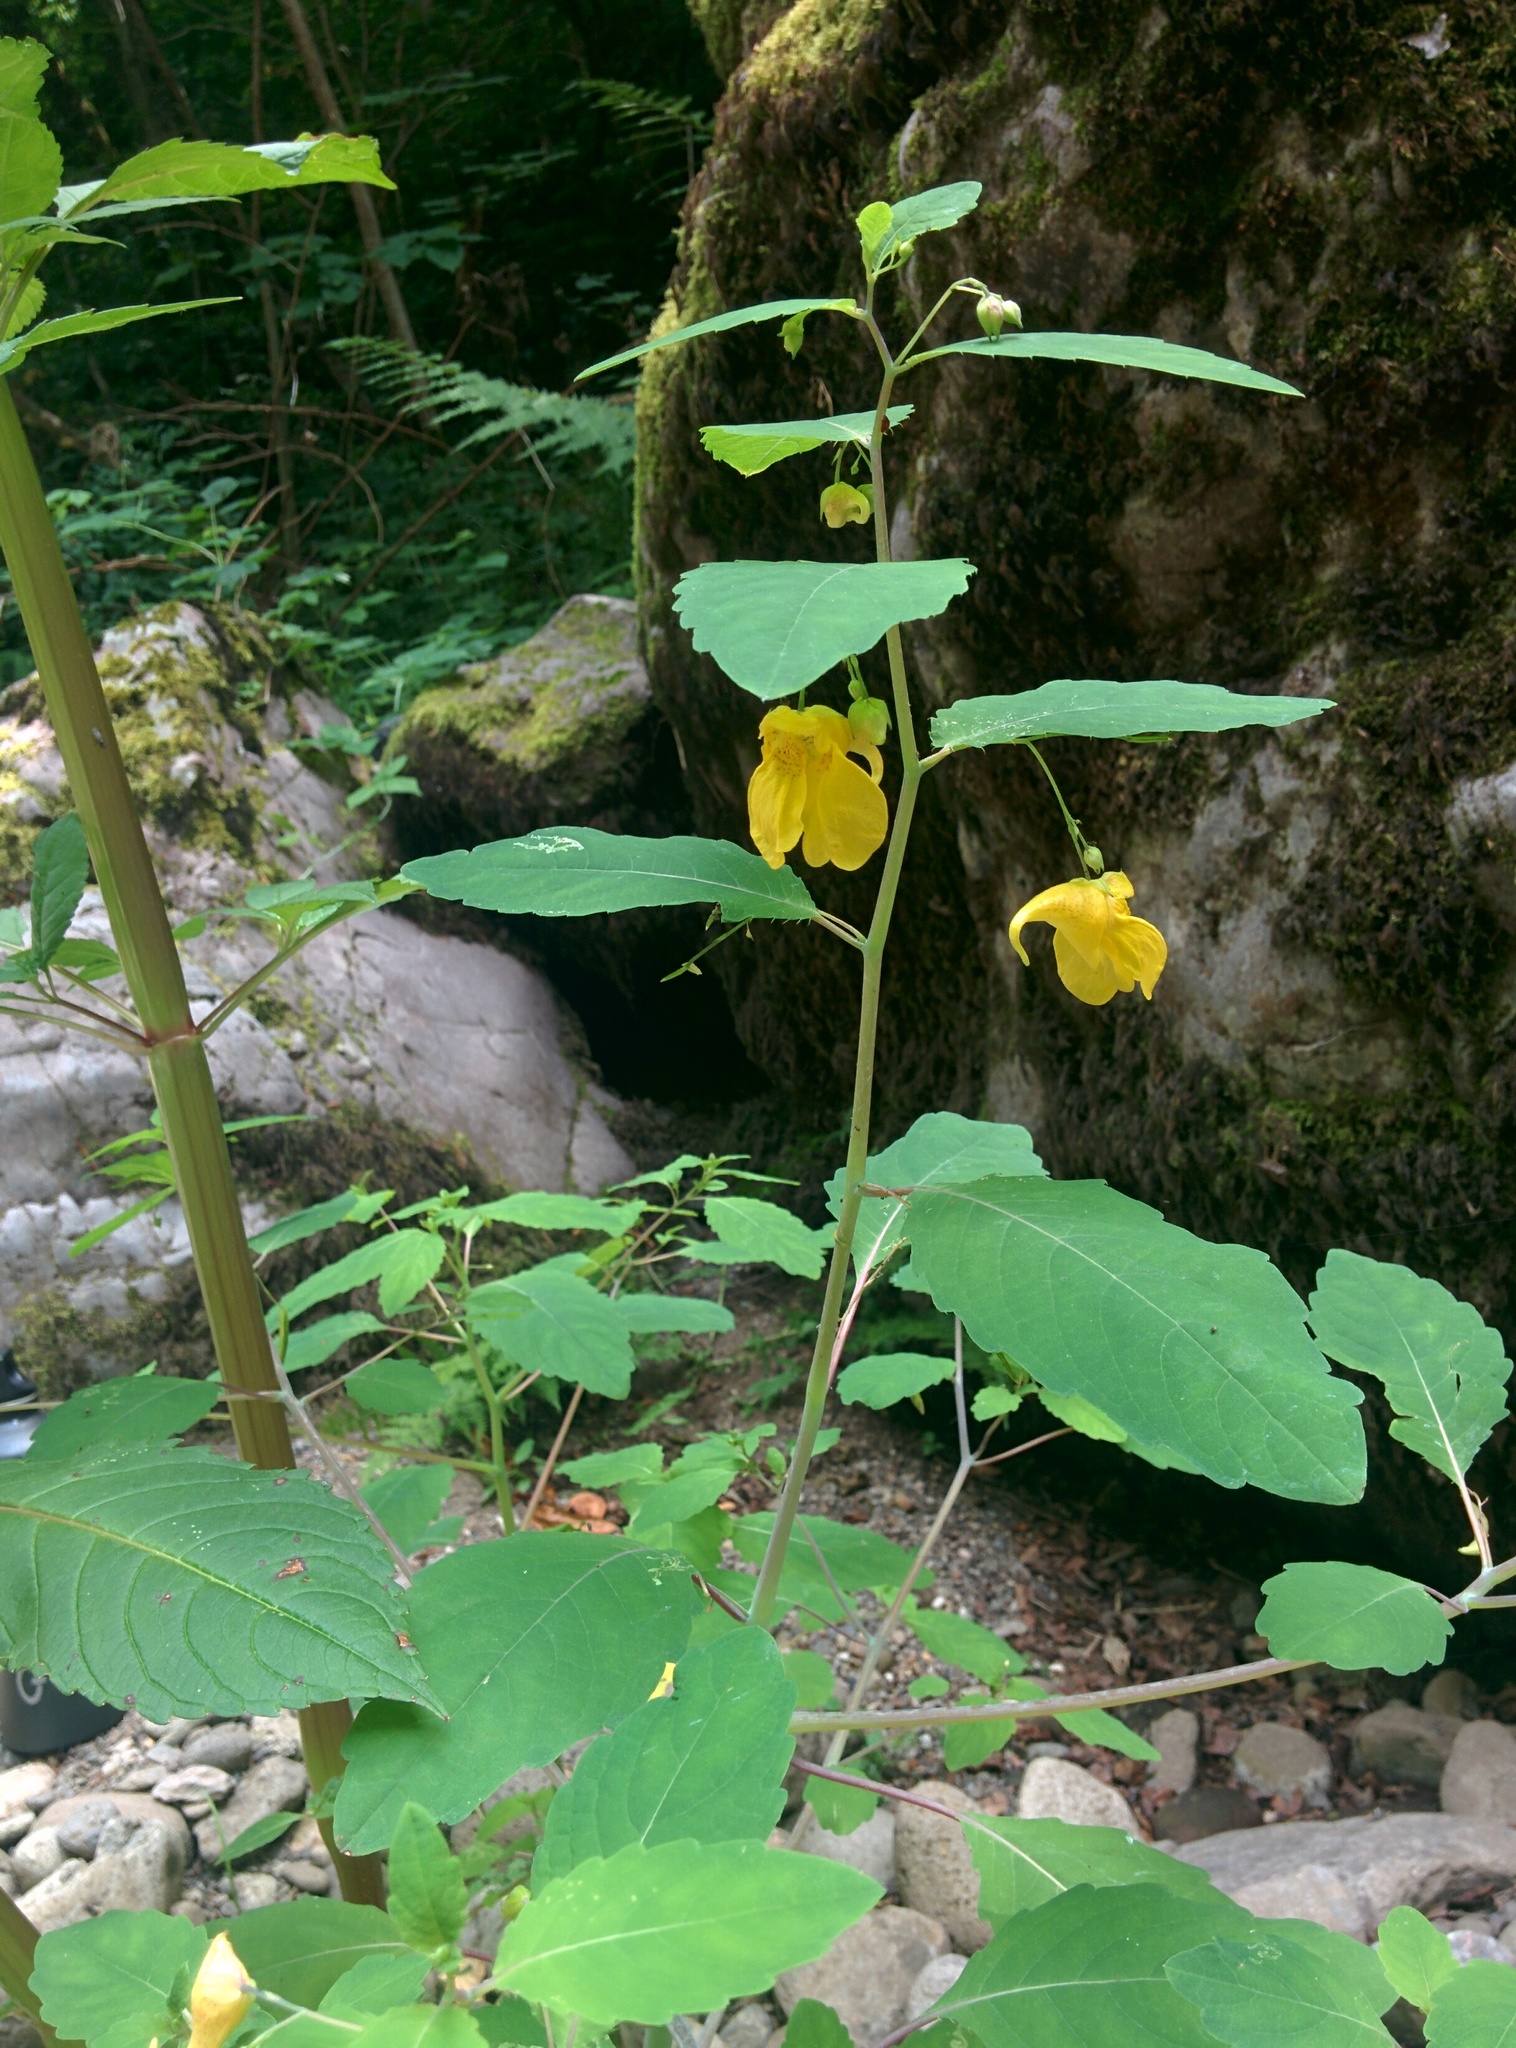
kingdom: Plantae
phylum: Tracheophyta
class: Magnoliopsida
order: Ericales
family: Balsaminaceae
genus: Impatiens
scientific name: Impatiens noli-tangere
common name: Touch-me-not balsam
